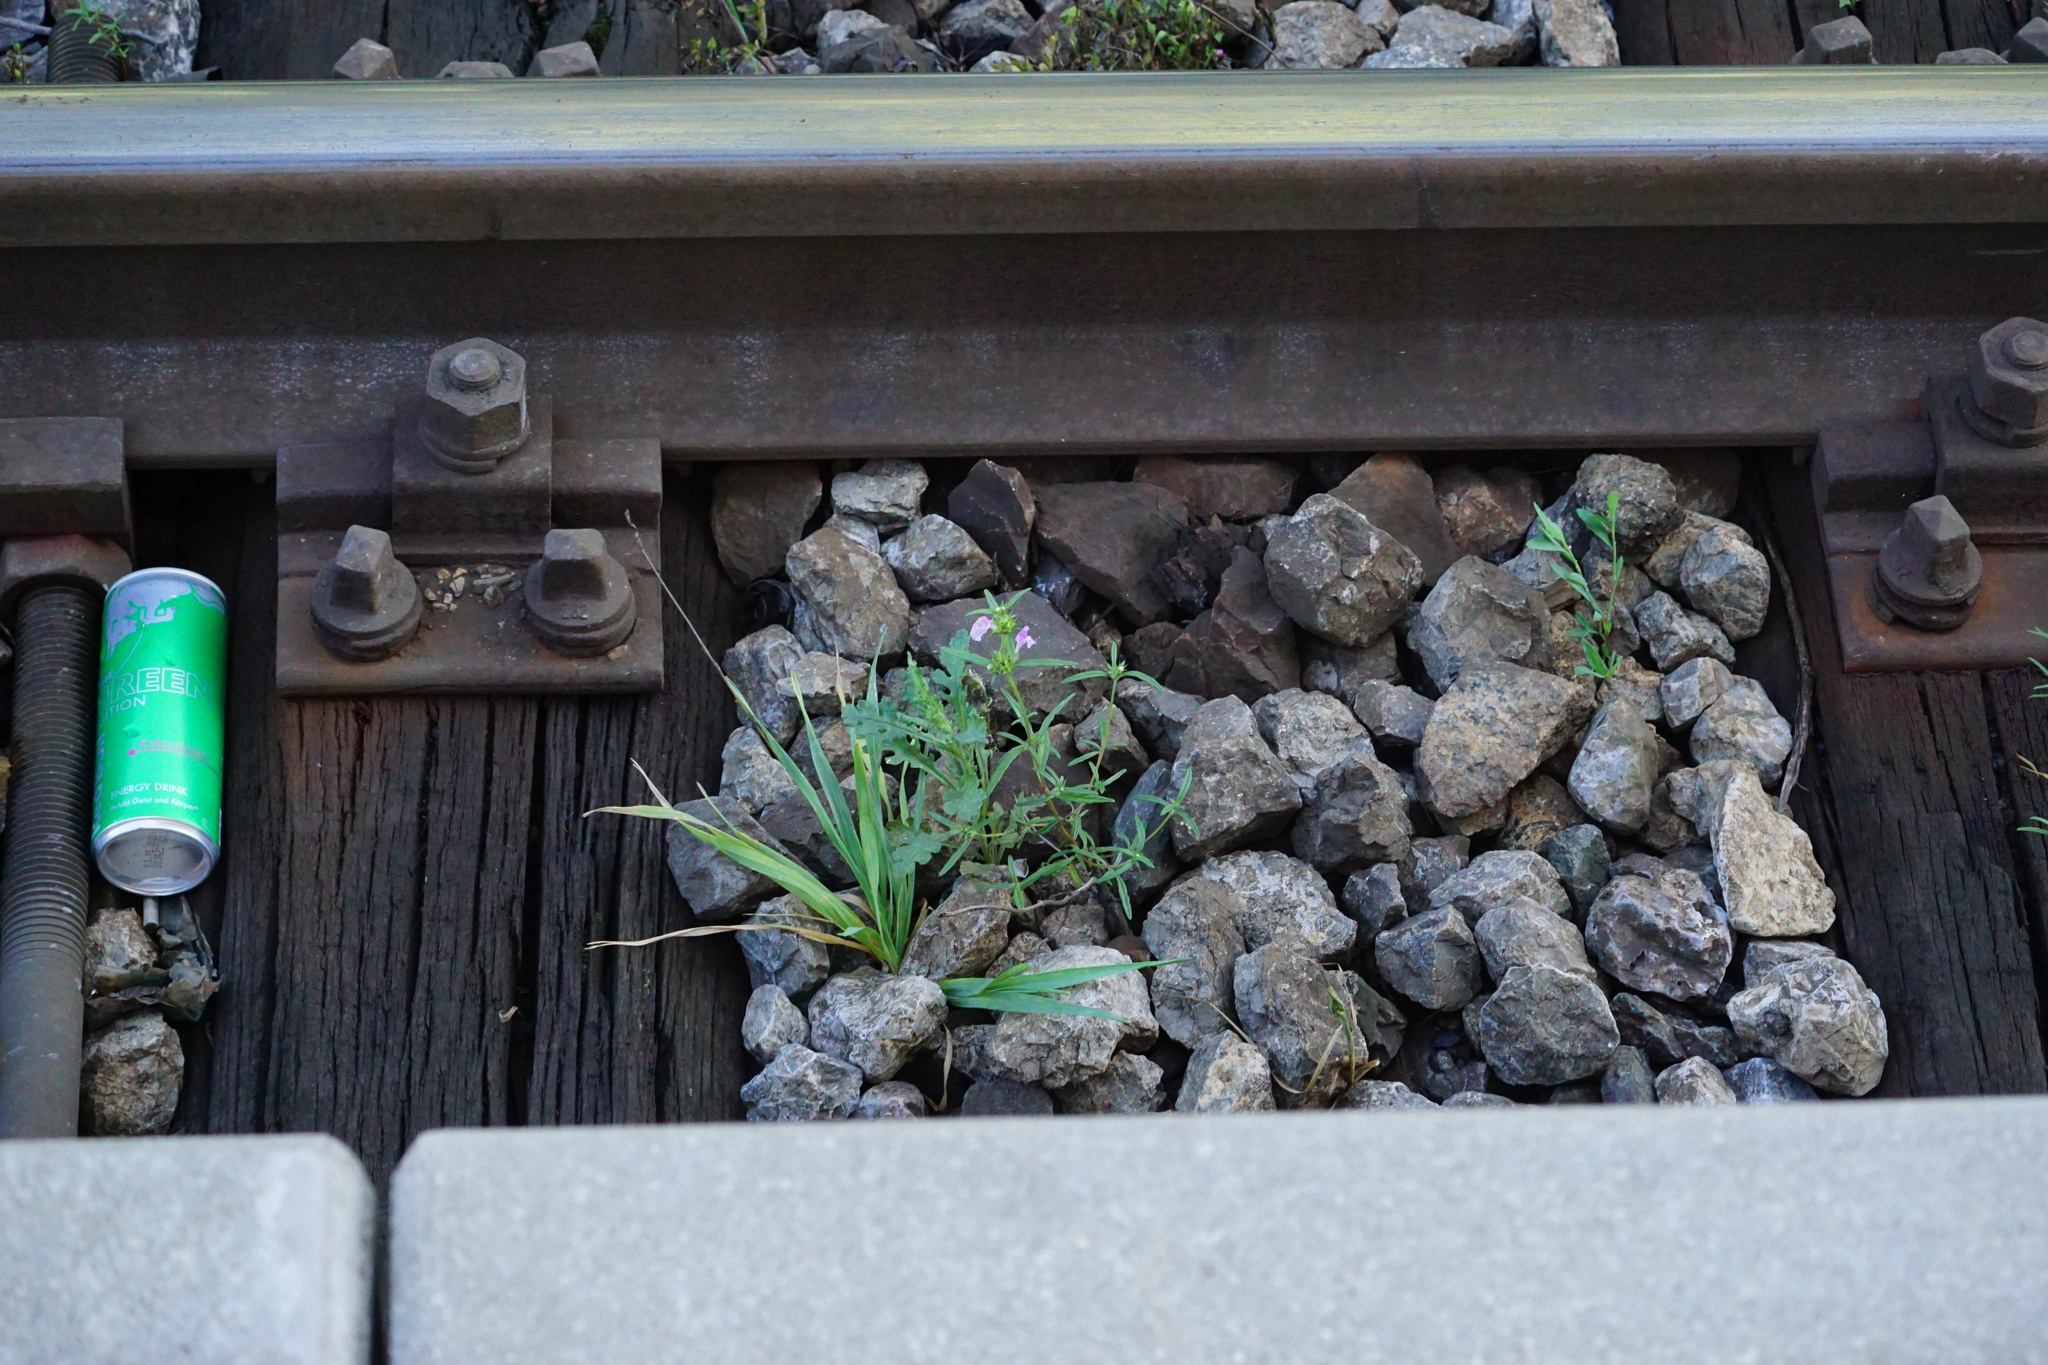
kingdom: Plantae
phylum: Tracheophyta
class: Magnoliopsida
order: Lamiales
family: Lamiaceae
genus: Galeopsis
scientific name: Galeopsis angustifolia
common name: Red hemp-nettle
